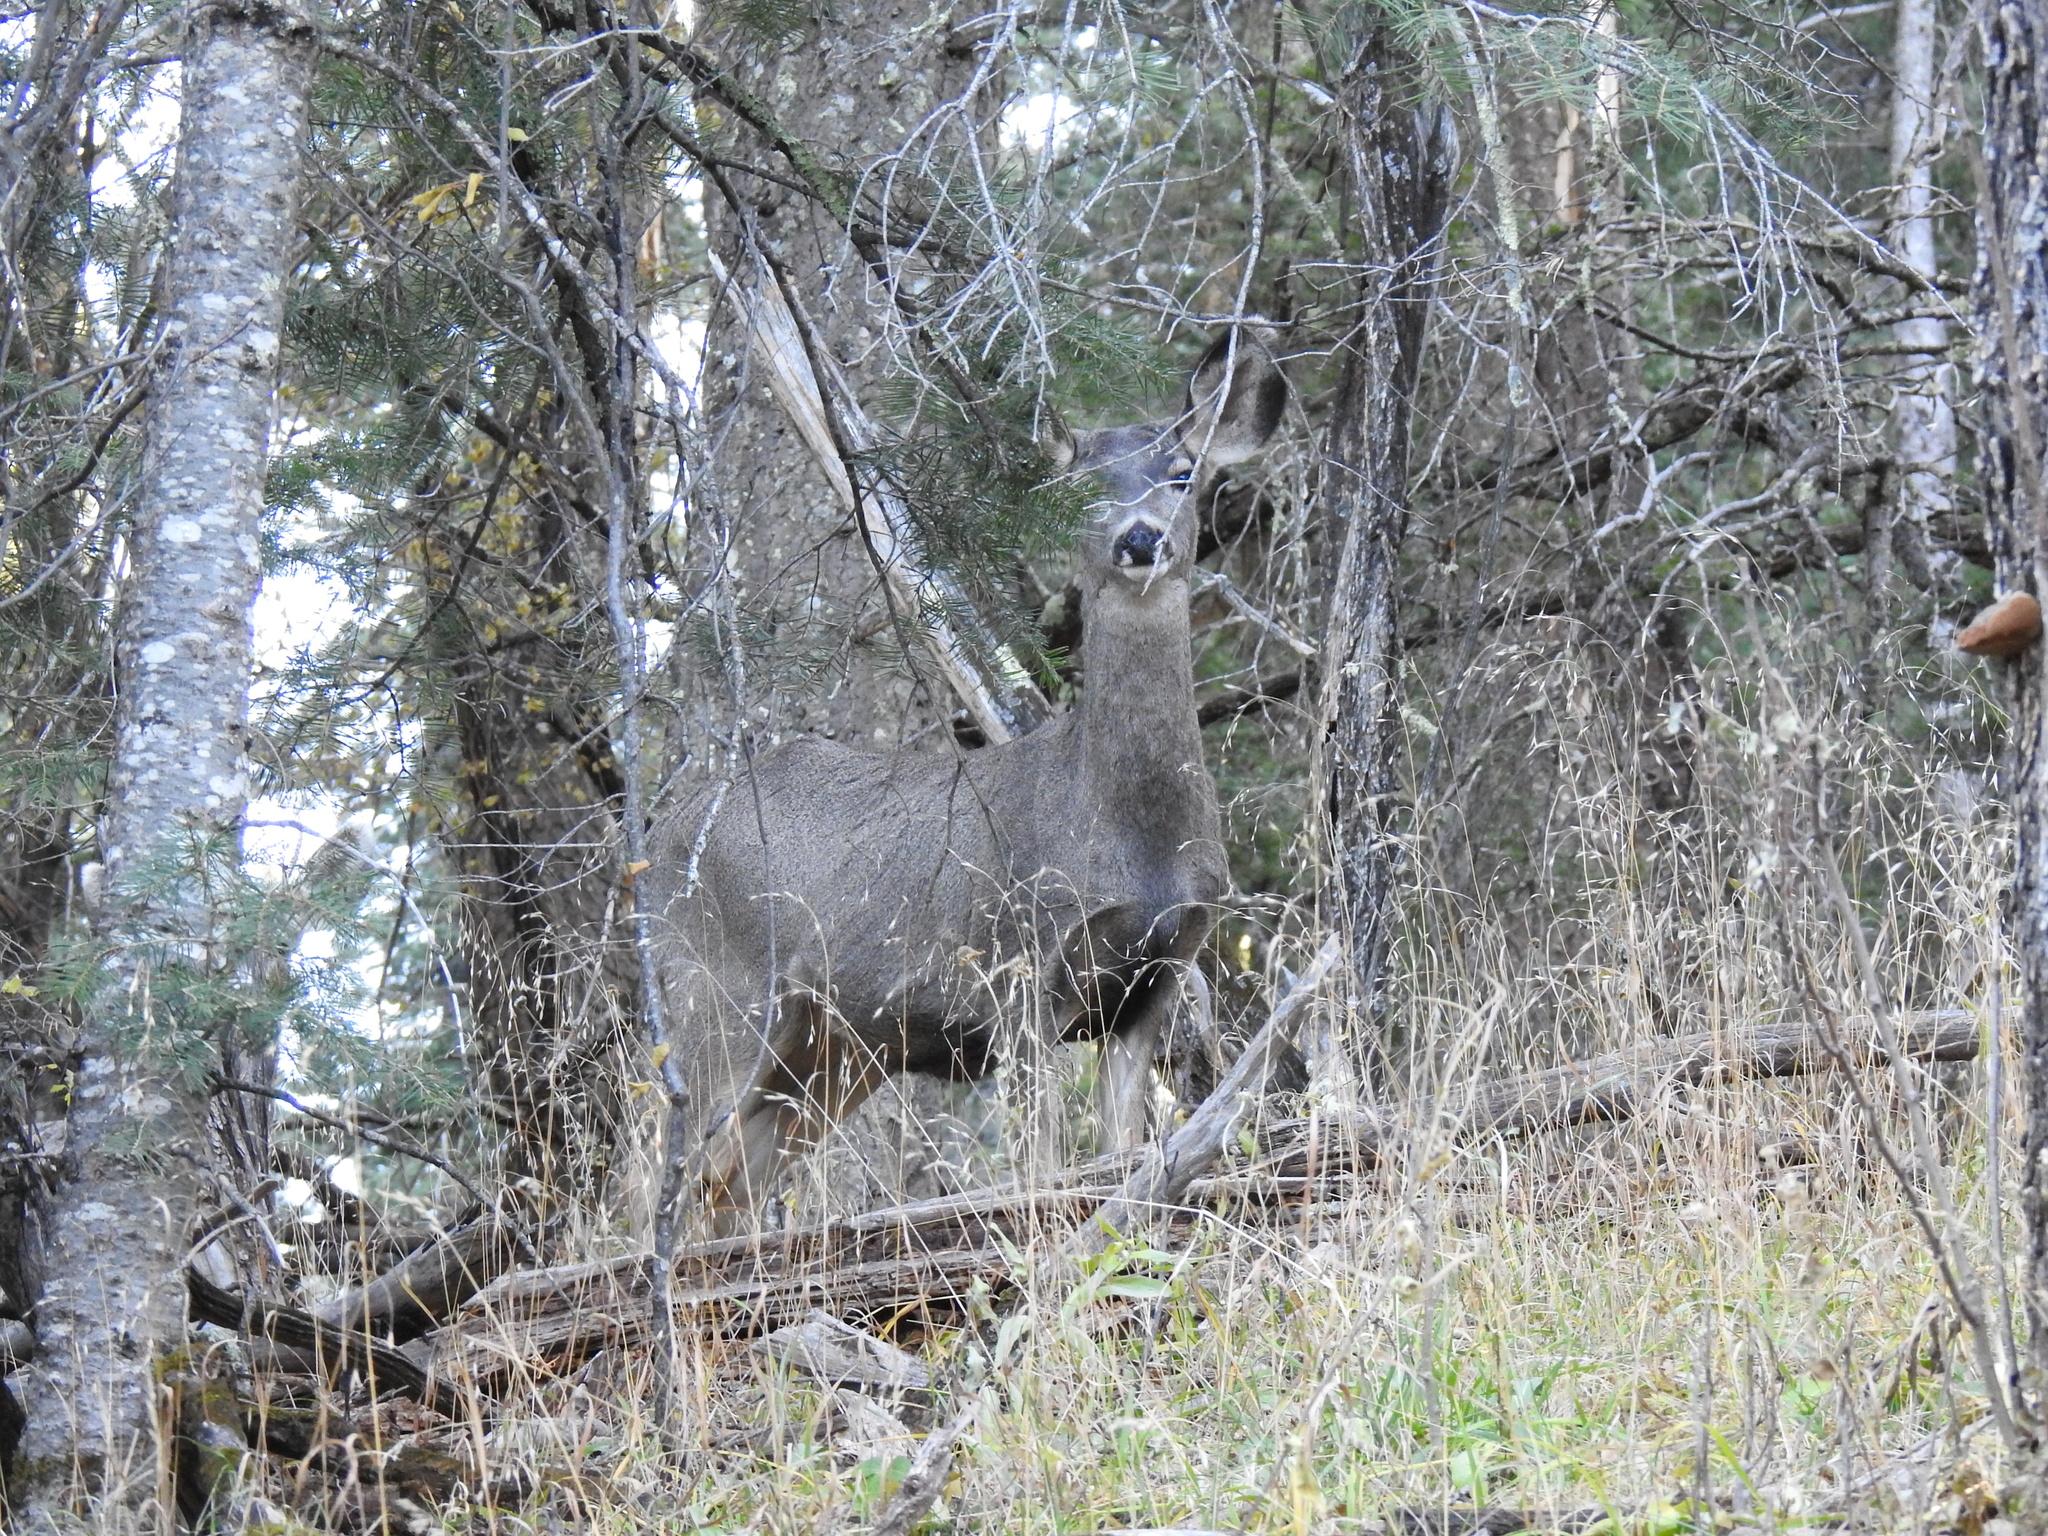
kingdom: Animalia
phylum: Chordata
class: Mammalia
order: Artiodactyla
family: Cervidae
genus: Odocoileus
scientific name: Odocoileus hemionus
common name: Mule deer
